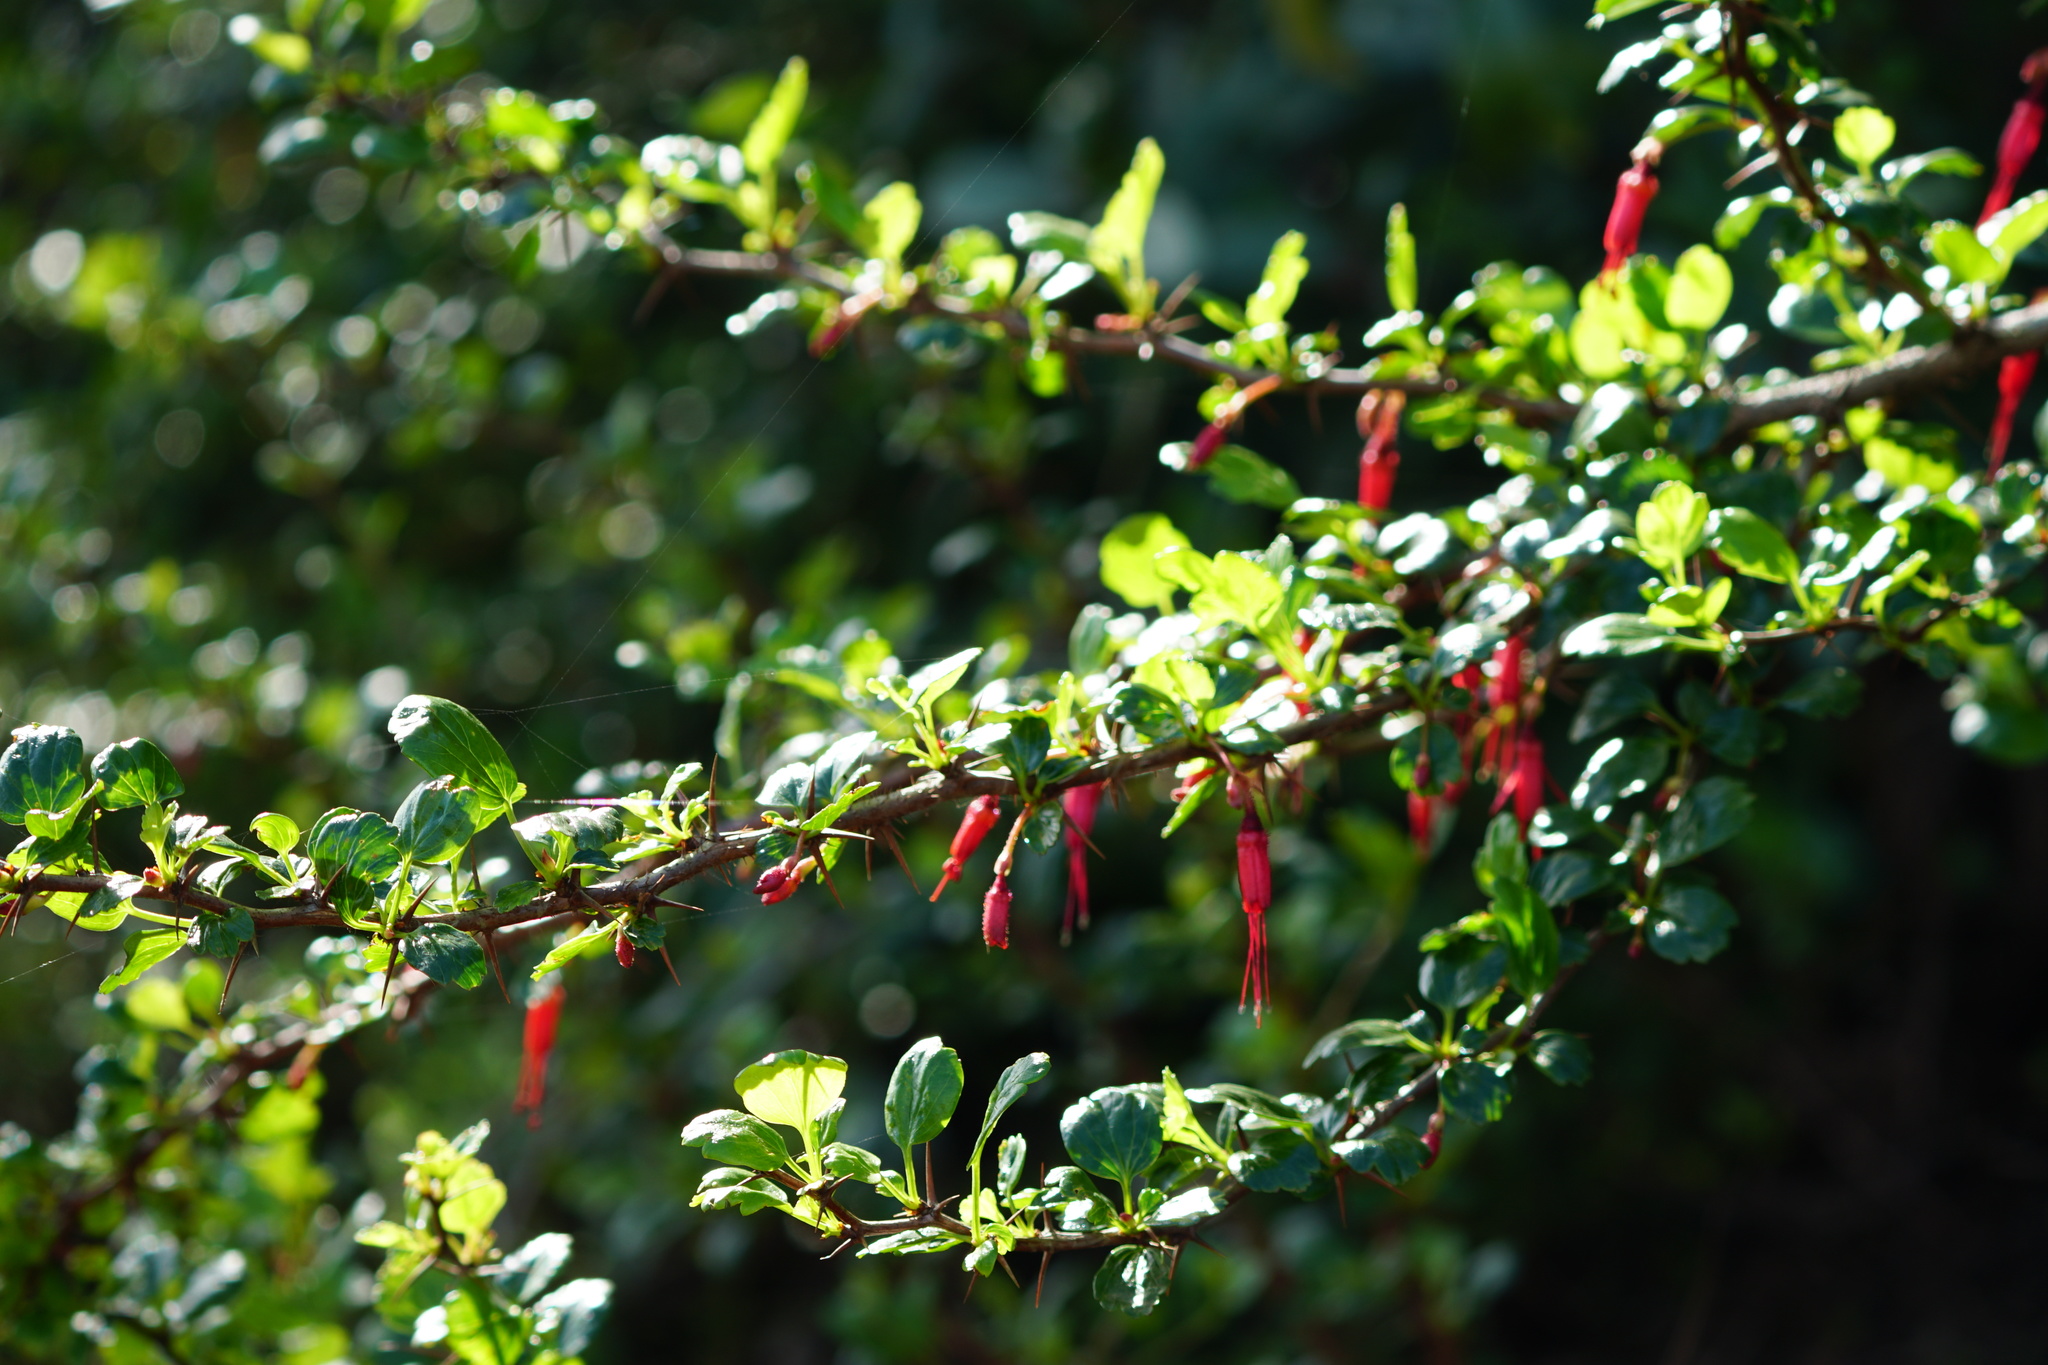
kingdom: Plantae
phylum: Tracheophyta
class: Magnoliopsida
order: Saxifragales
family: Grossulariaceae
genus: Ribes
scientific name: Ribes speciosum
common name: Fuchsia-flower gooseberry
